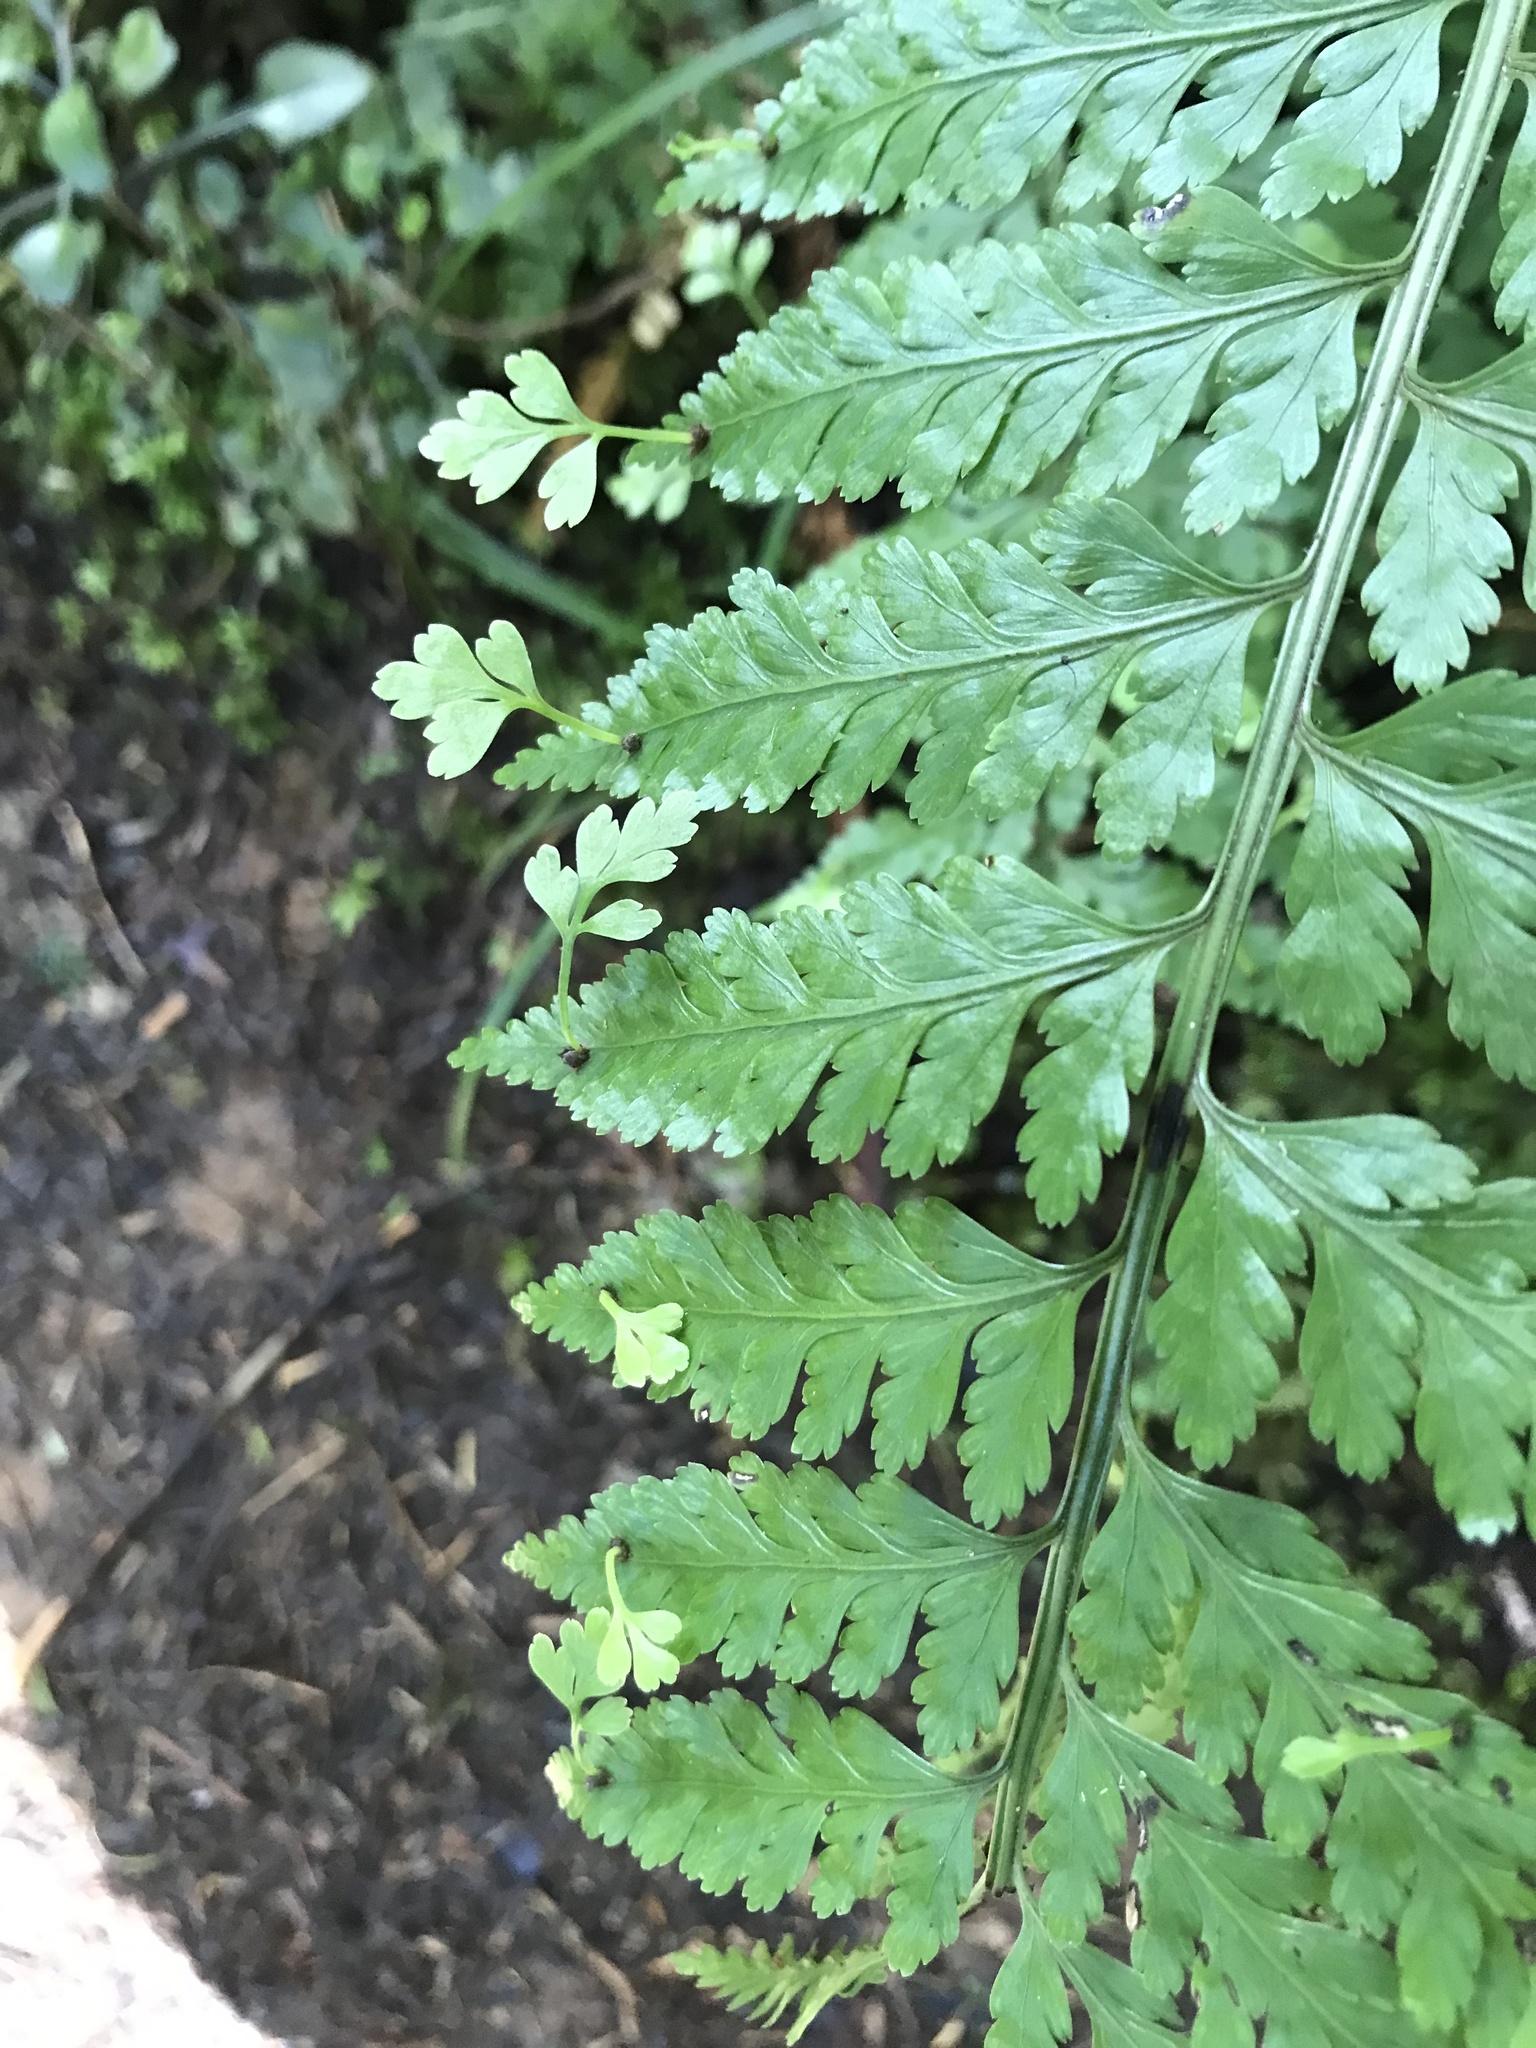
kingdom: Plantae
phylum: Tracheophyta
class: Polypodiopsida
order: Polypodiales
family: Aspleniaceae
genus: Asplenium
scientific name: Asplenium bulbiferum
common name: Mother fern
